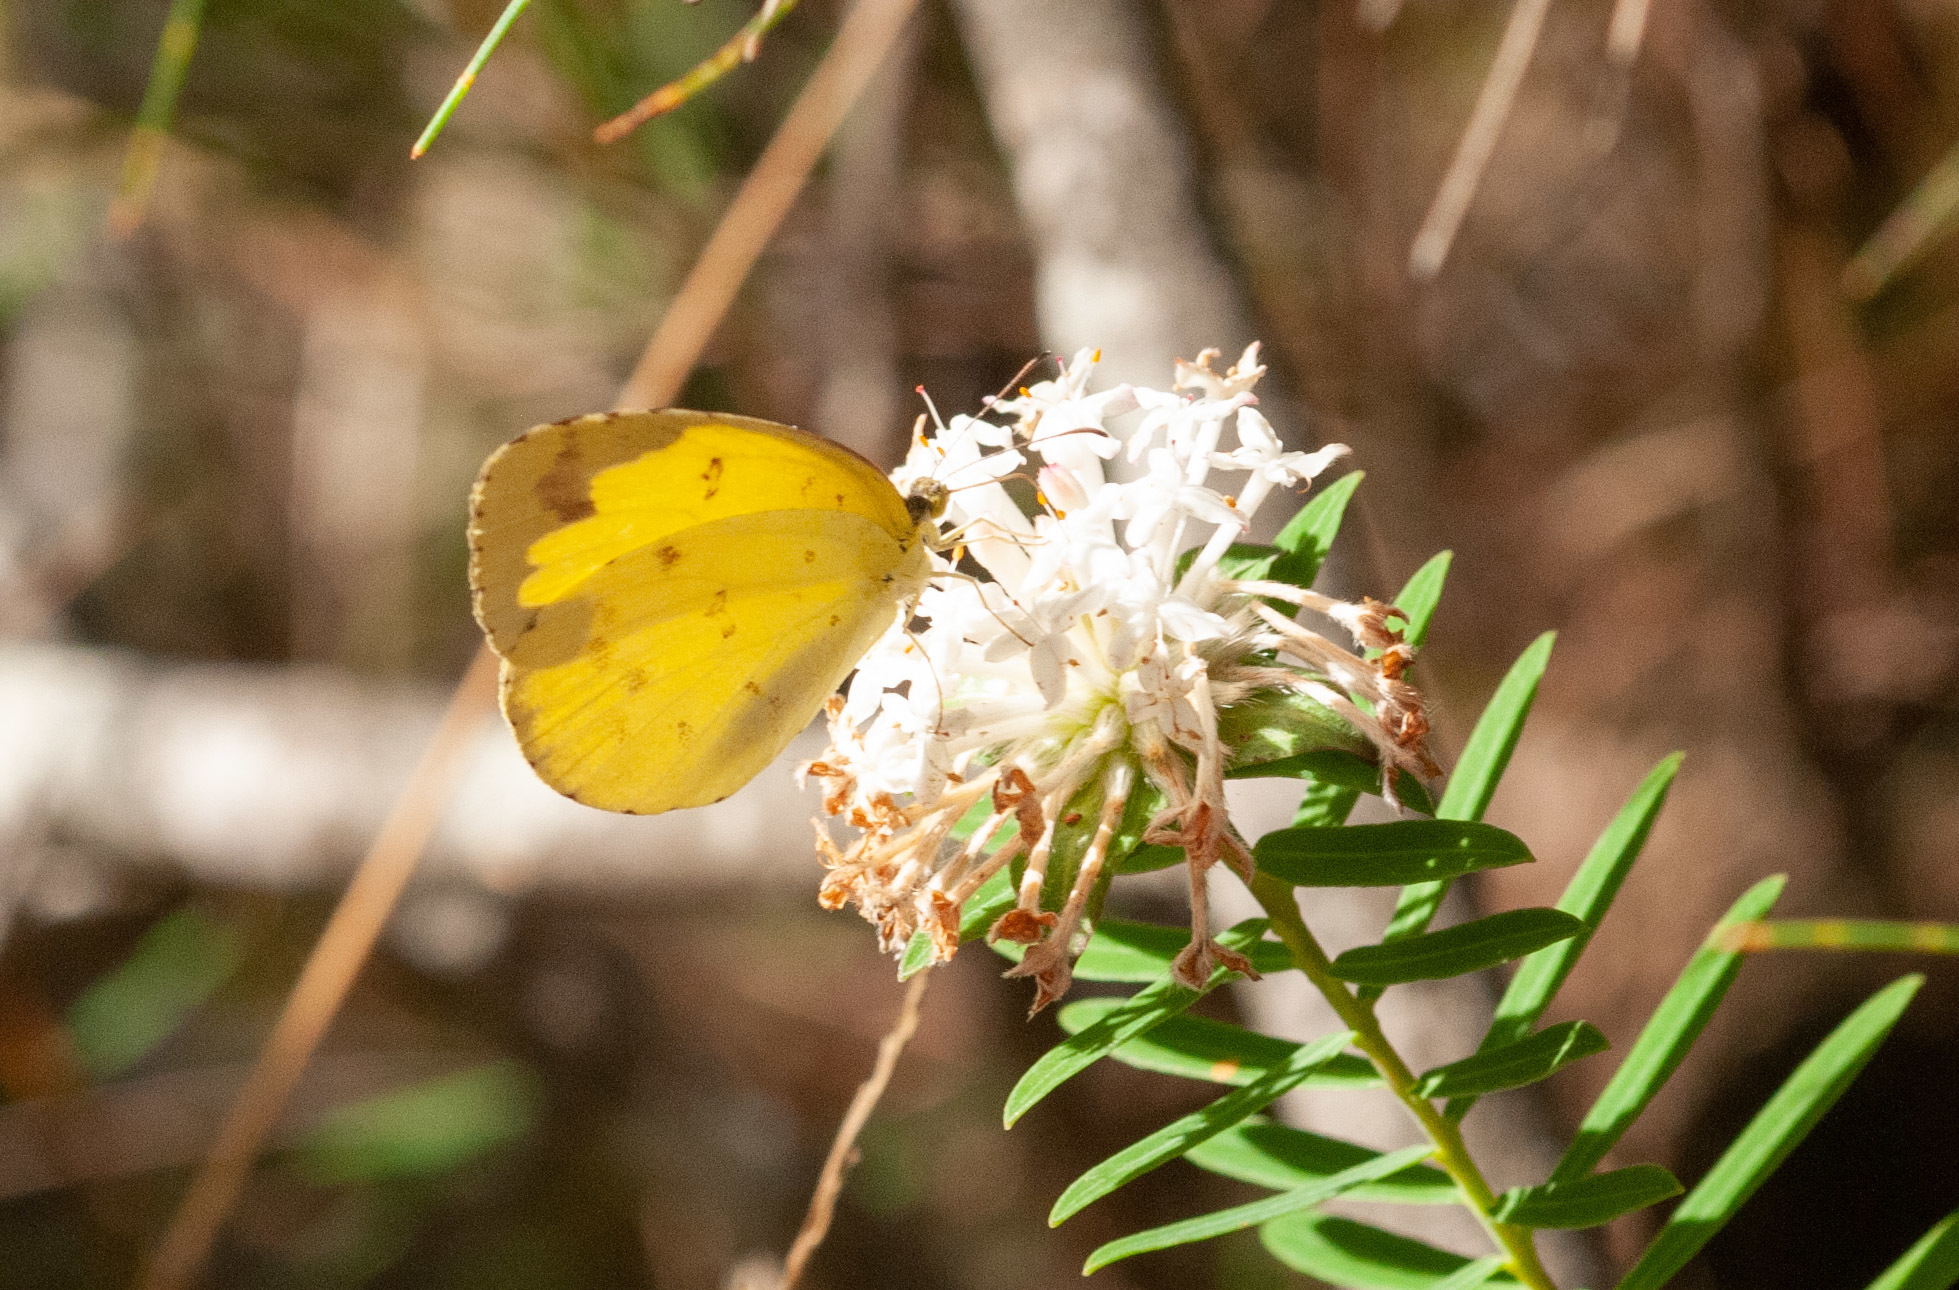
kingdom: Animalia
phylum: Arthropoda
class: Insecta
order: Lepidoptera
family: Pieridae
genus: Eurema
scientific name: Eurema hecabe
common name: Pale grass yellow
